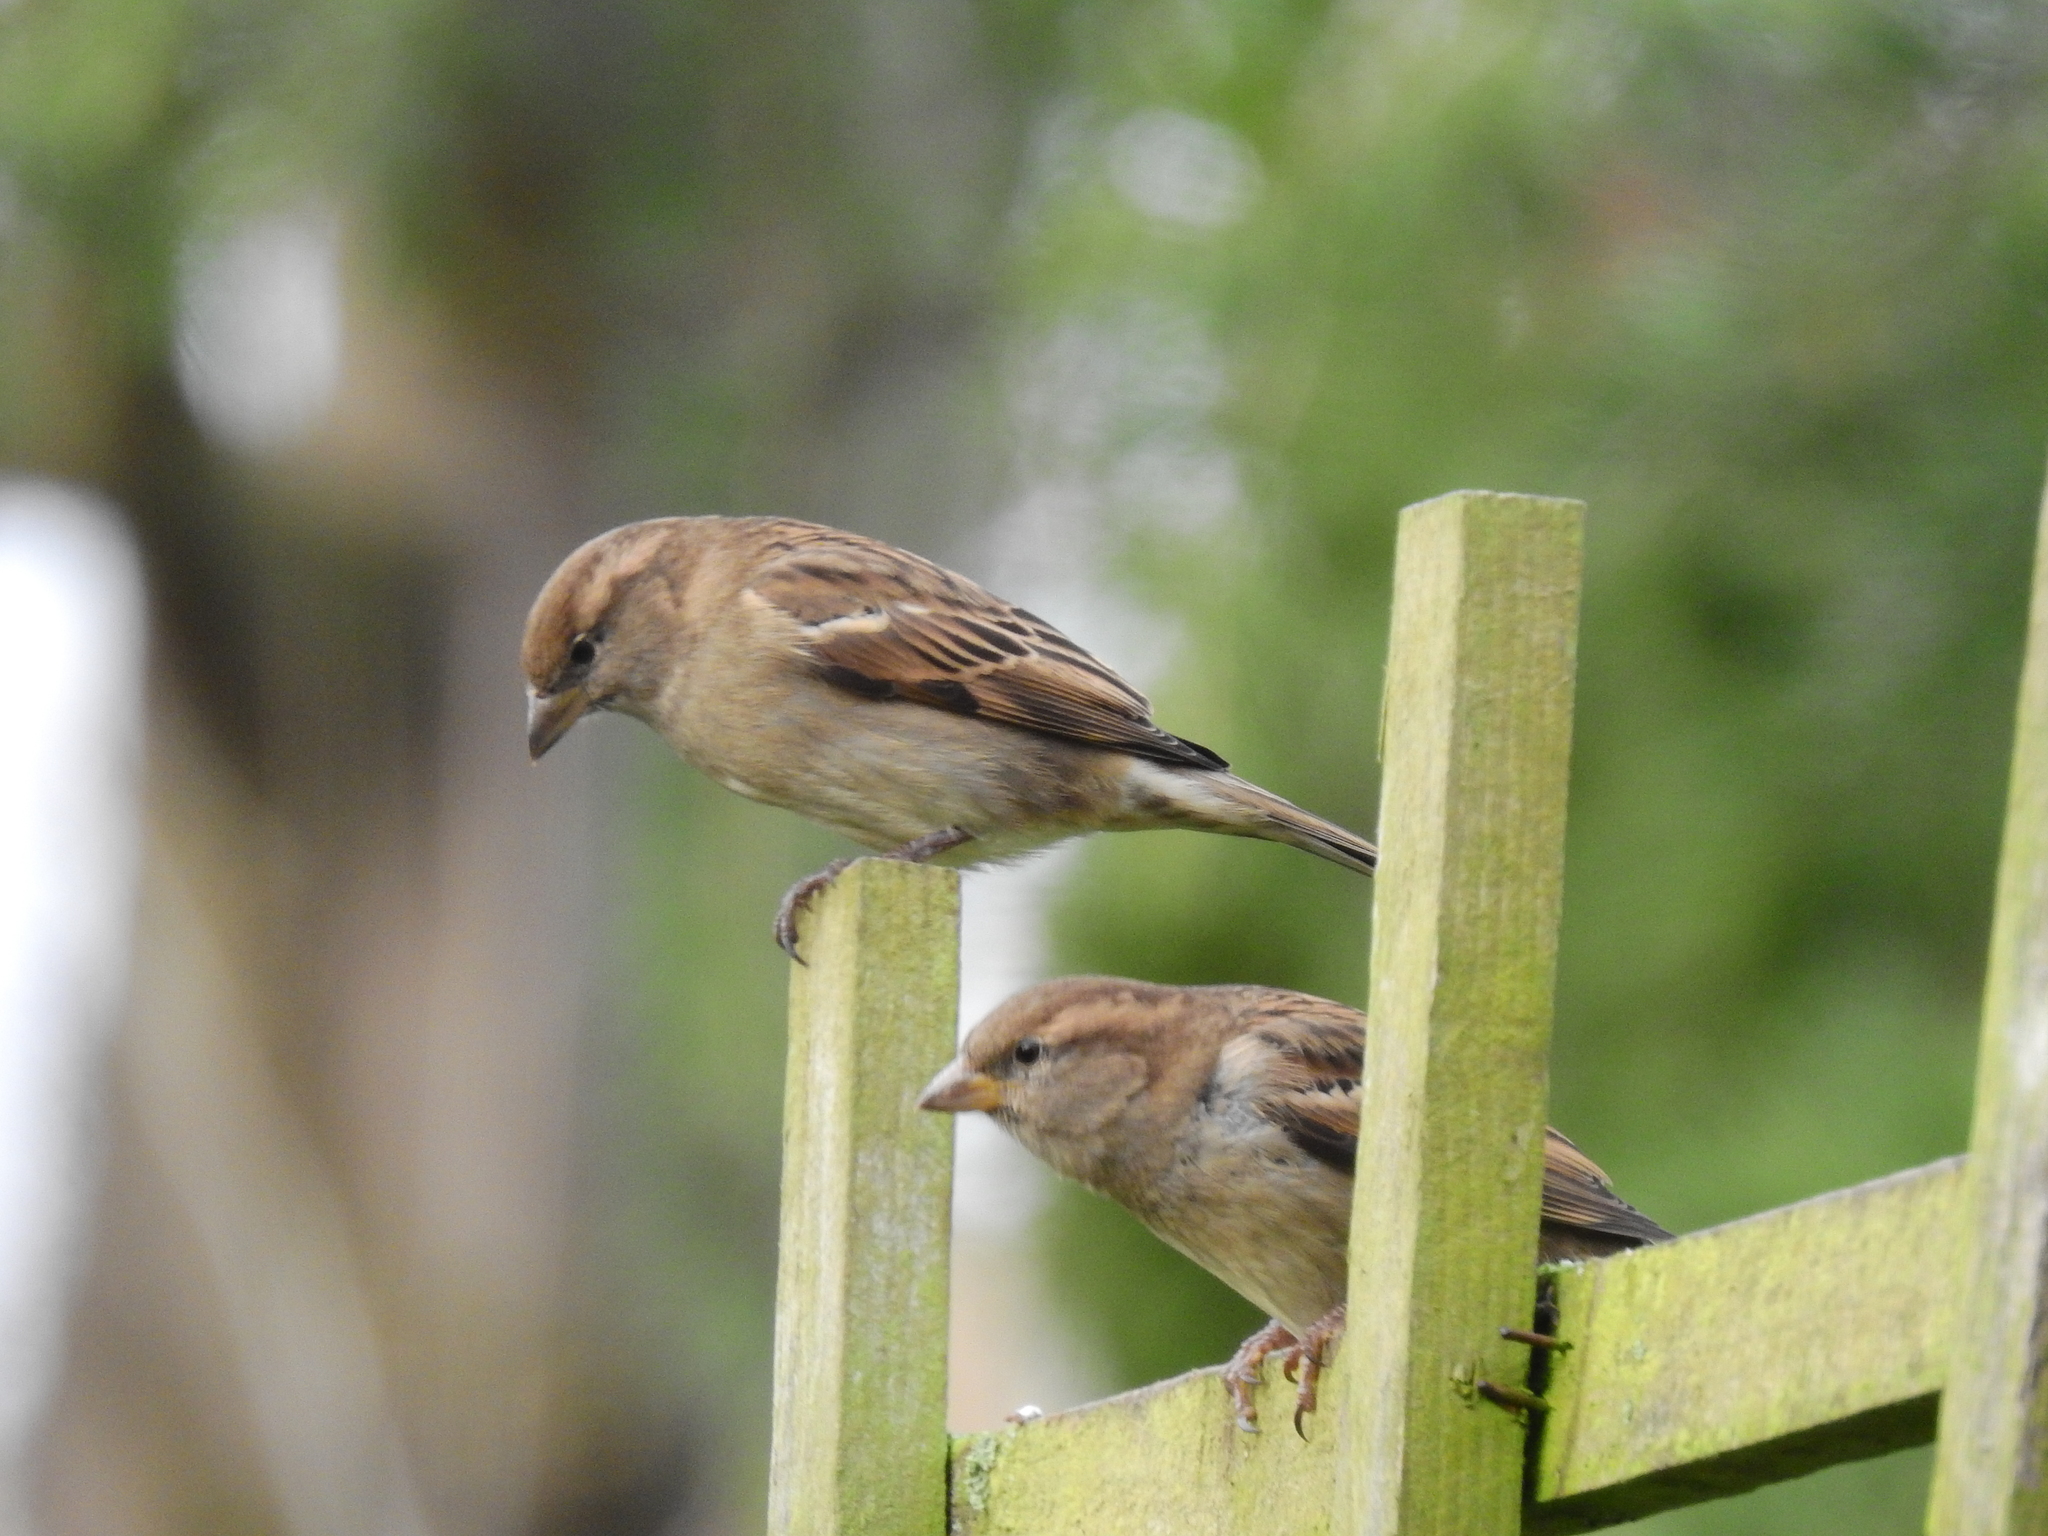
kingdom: Animalia
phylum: Chordata
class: Aves
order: Passeriformes
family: Passeridae
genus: Passer
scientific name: Passer domesticus
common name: House sparrow
